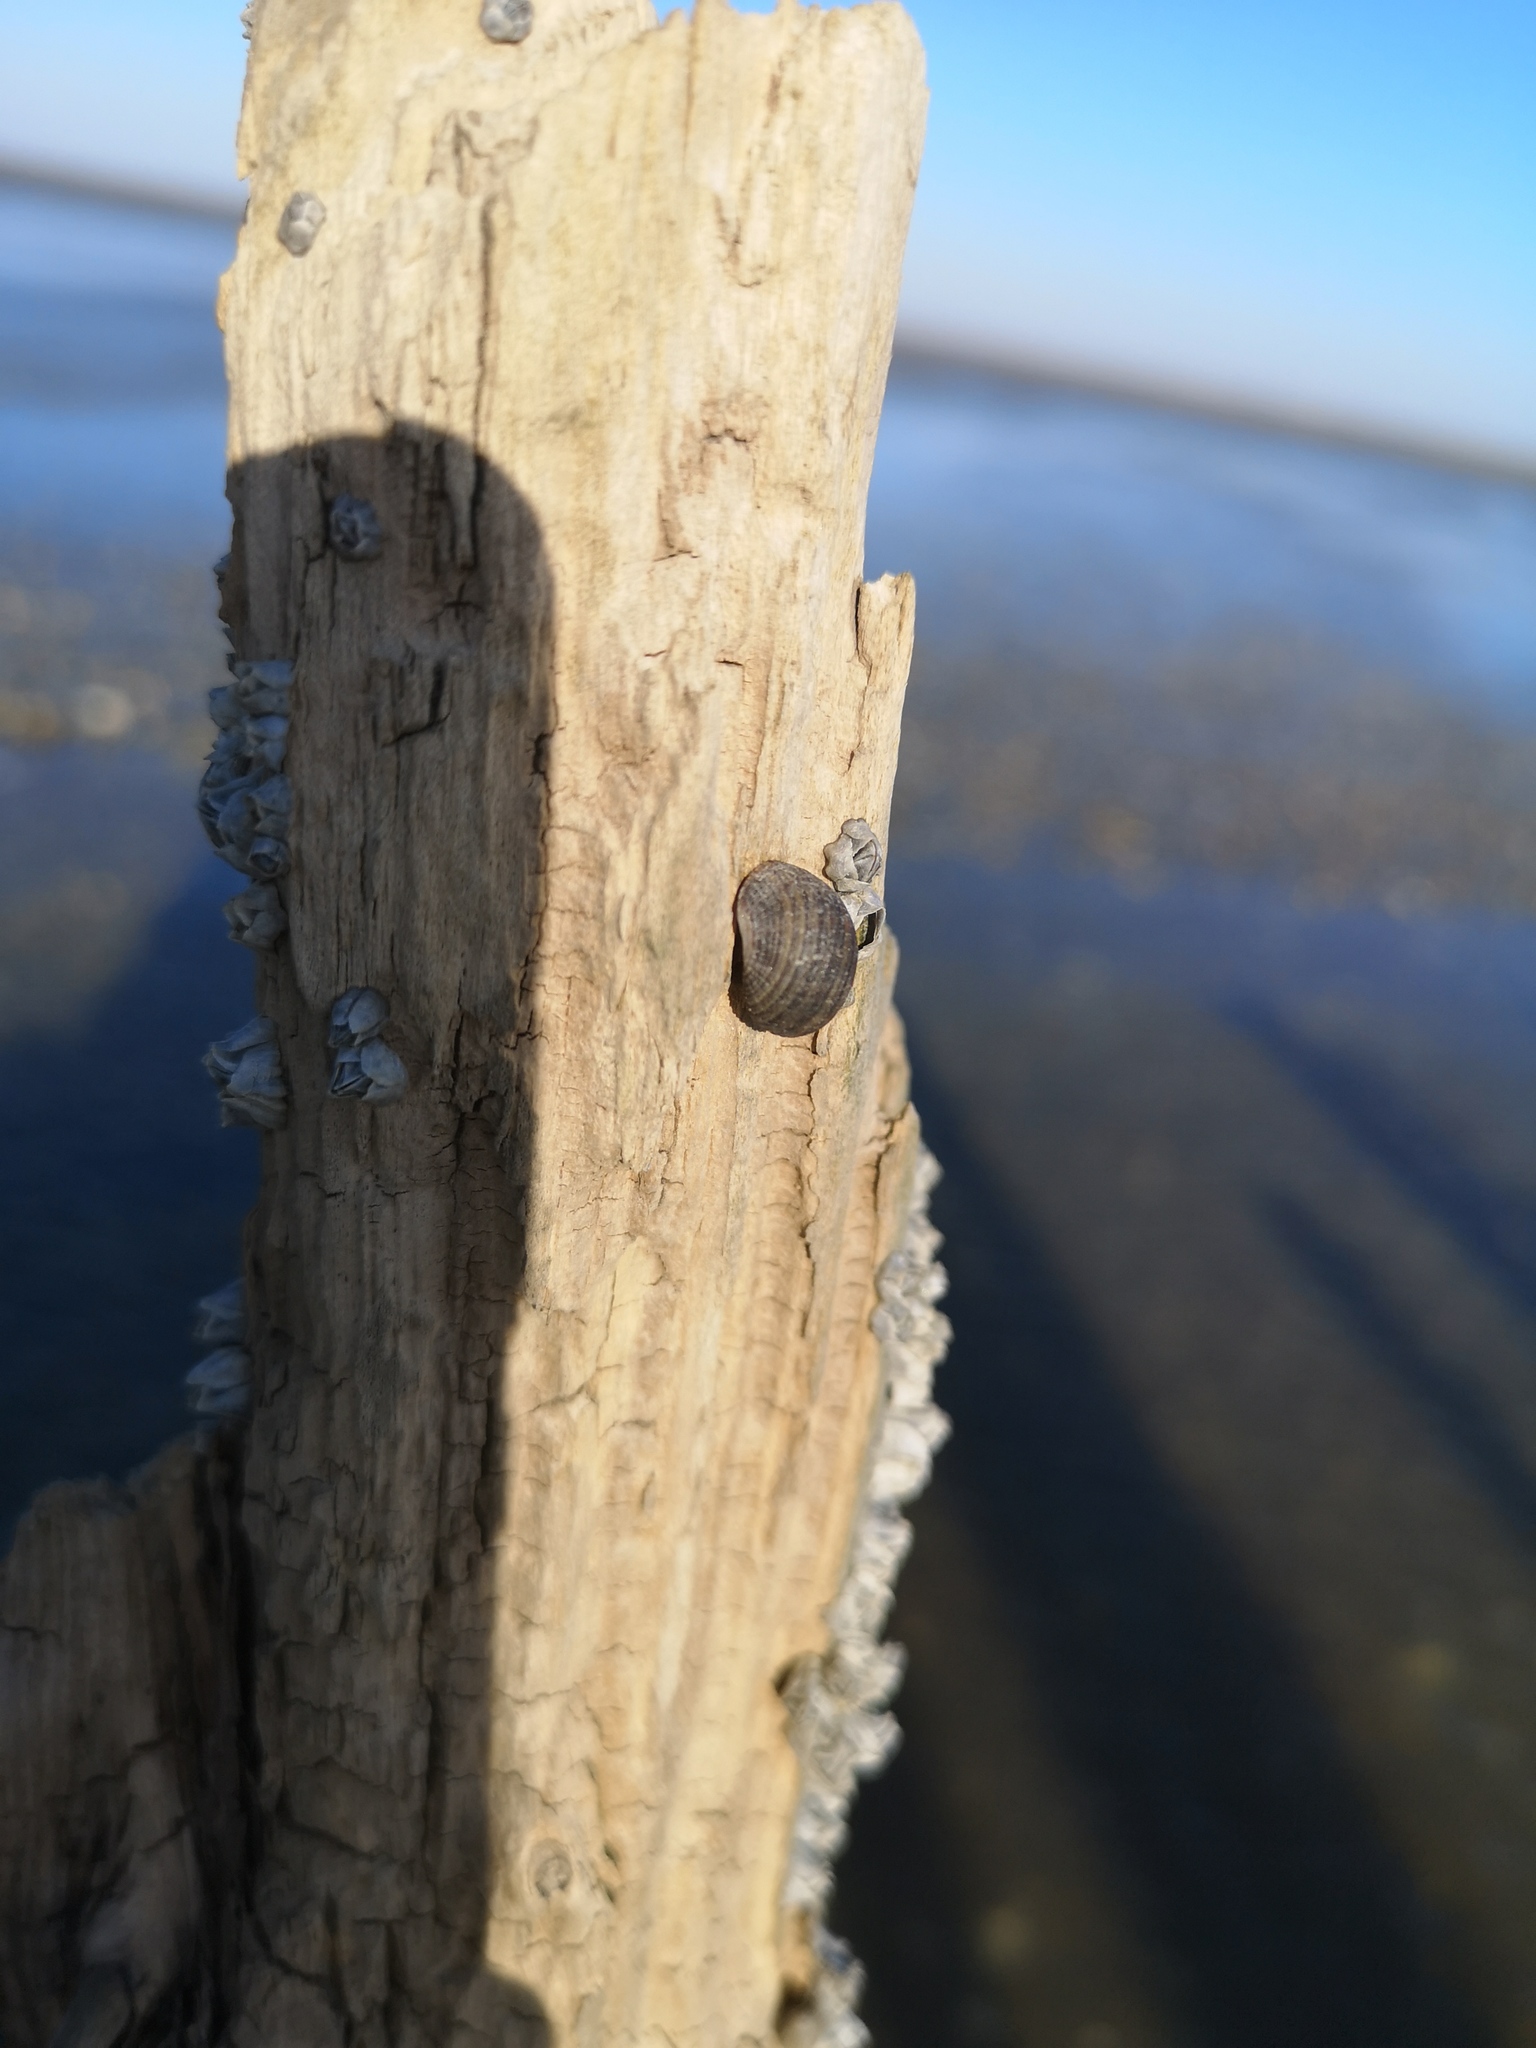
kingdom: Animalia
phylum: Mollusca
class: Gastropoda
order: Littorinimorpha
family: Littorinidae
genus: Littorina
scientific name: Littorina littorea
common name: Common periwinkle
